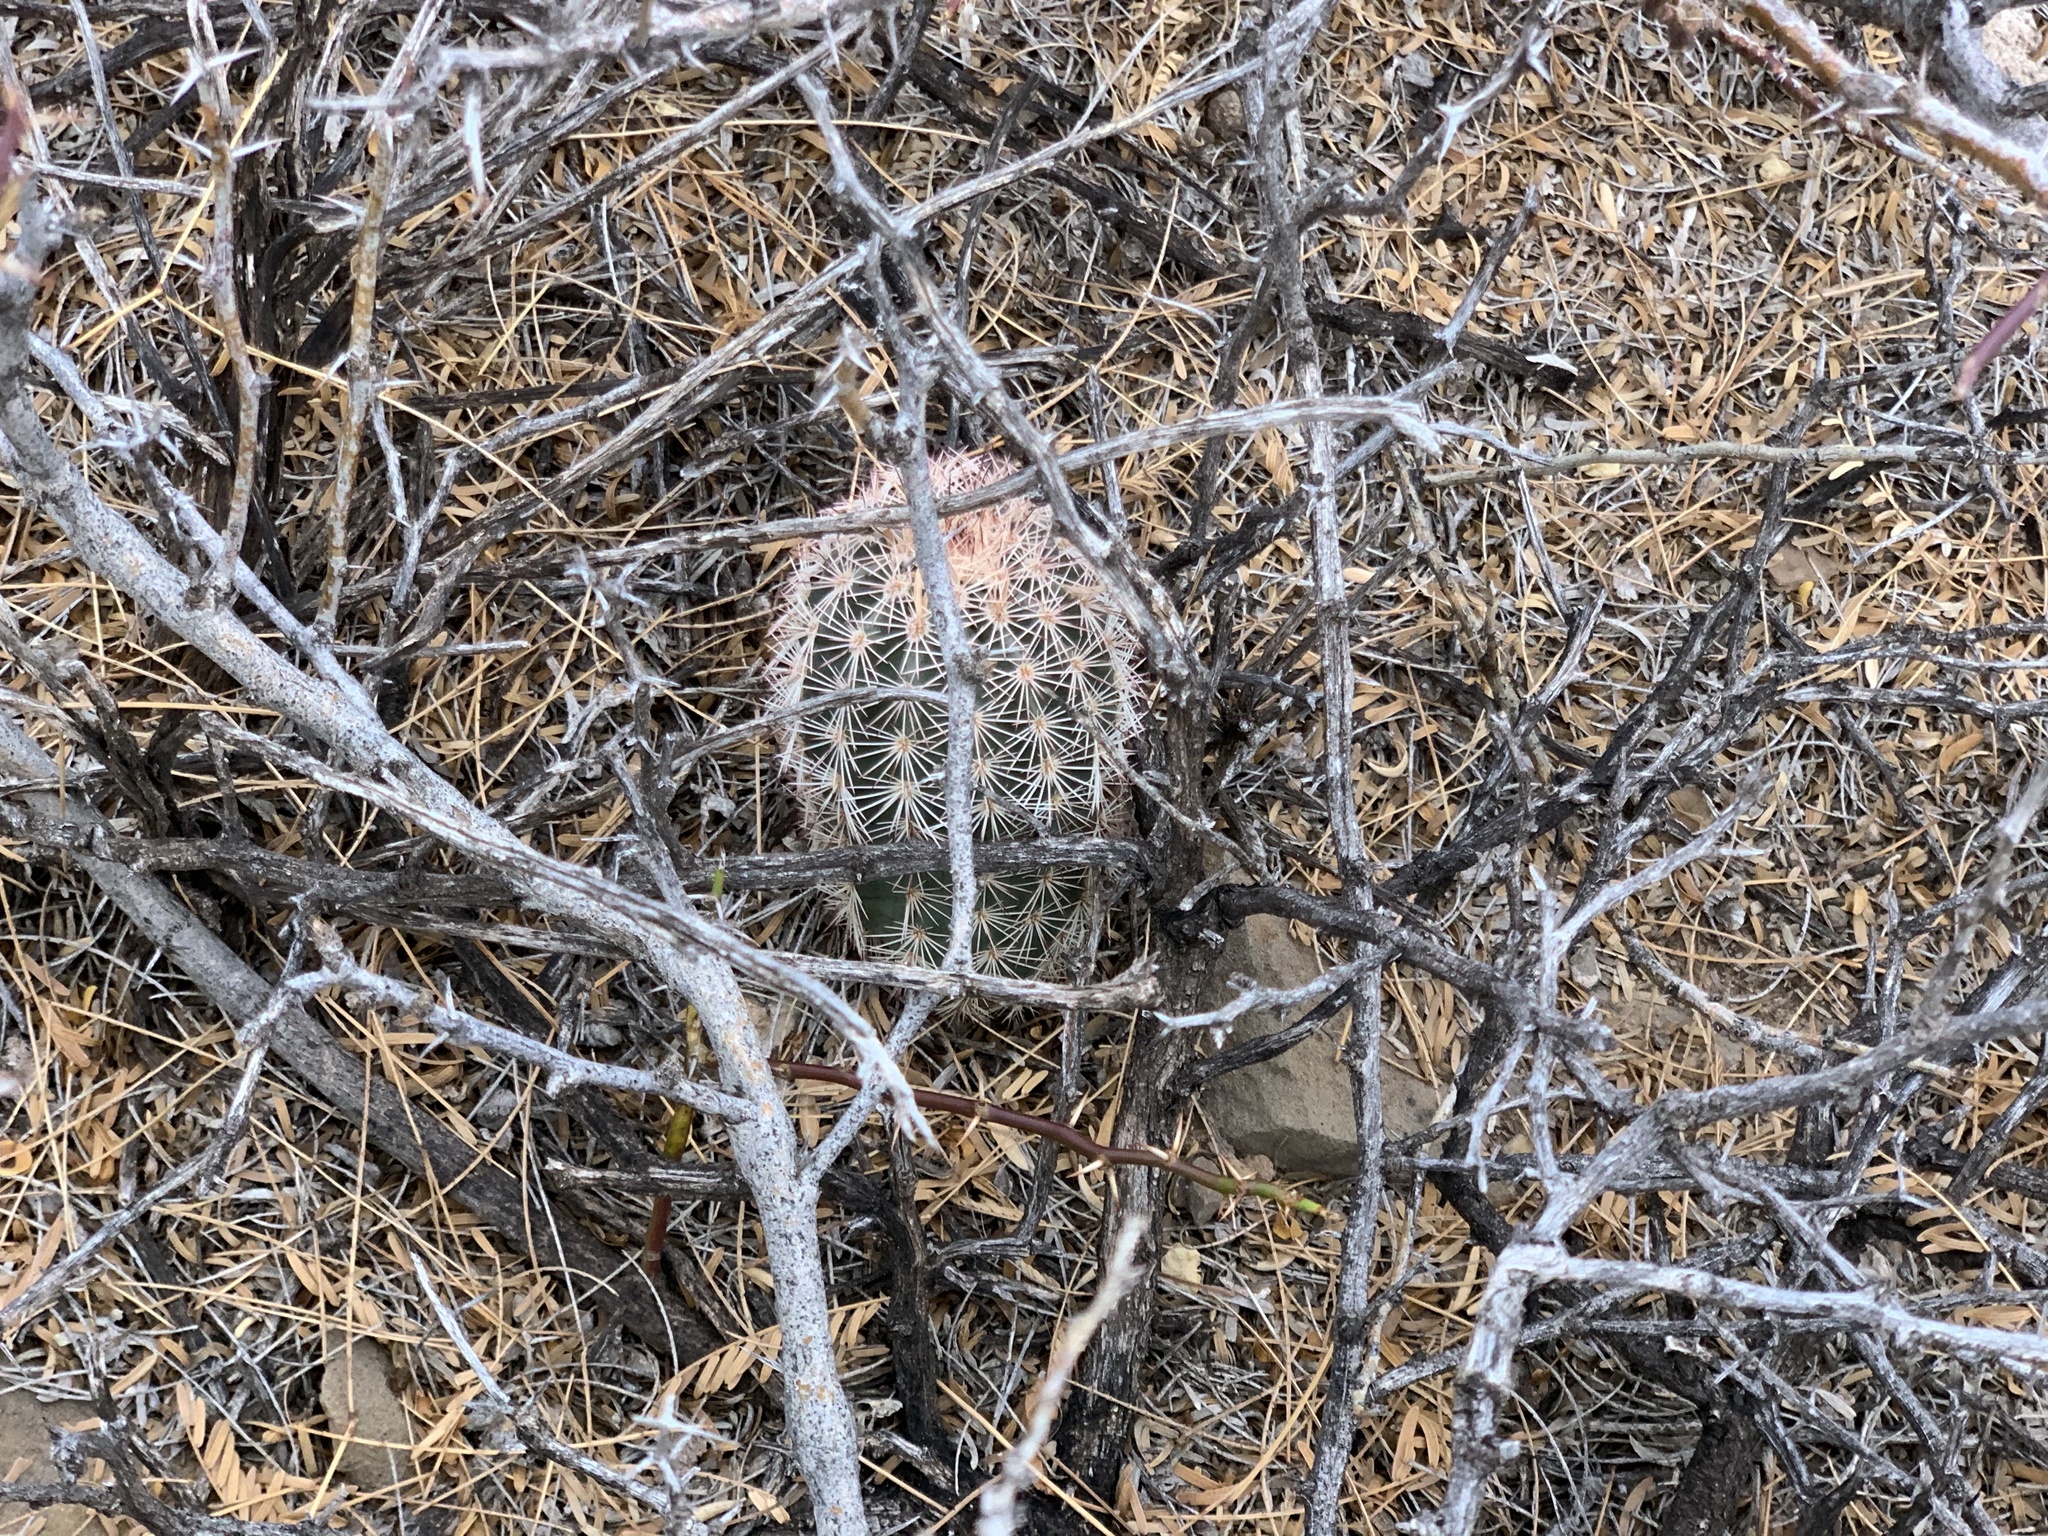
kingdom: Plantae
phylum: Tracheophyta
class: Magnoliopsida
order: Caryophyllales
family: Cactaceae
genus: Echinocereus
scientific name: Echinocereus dasyacanthus
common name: Spiny hedgehog cactus
